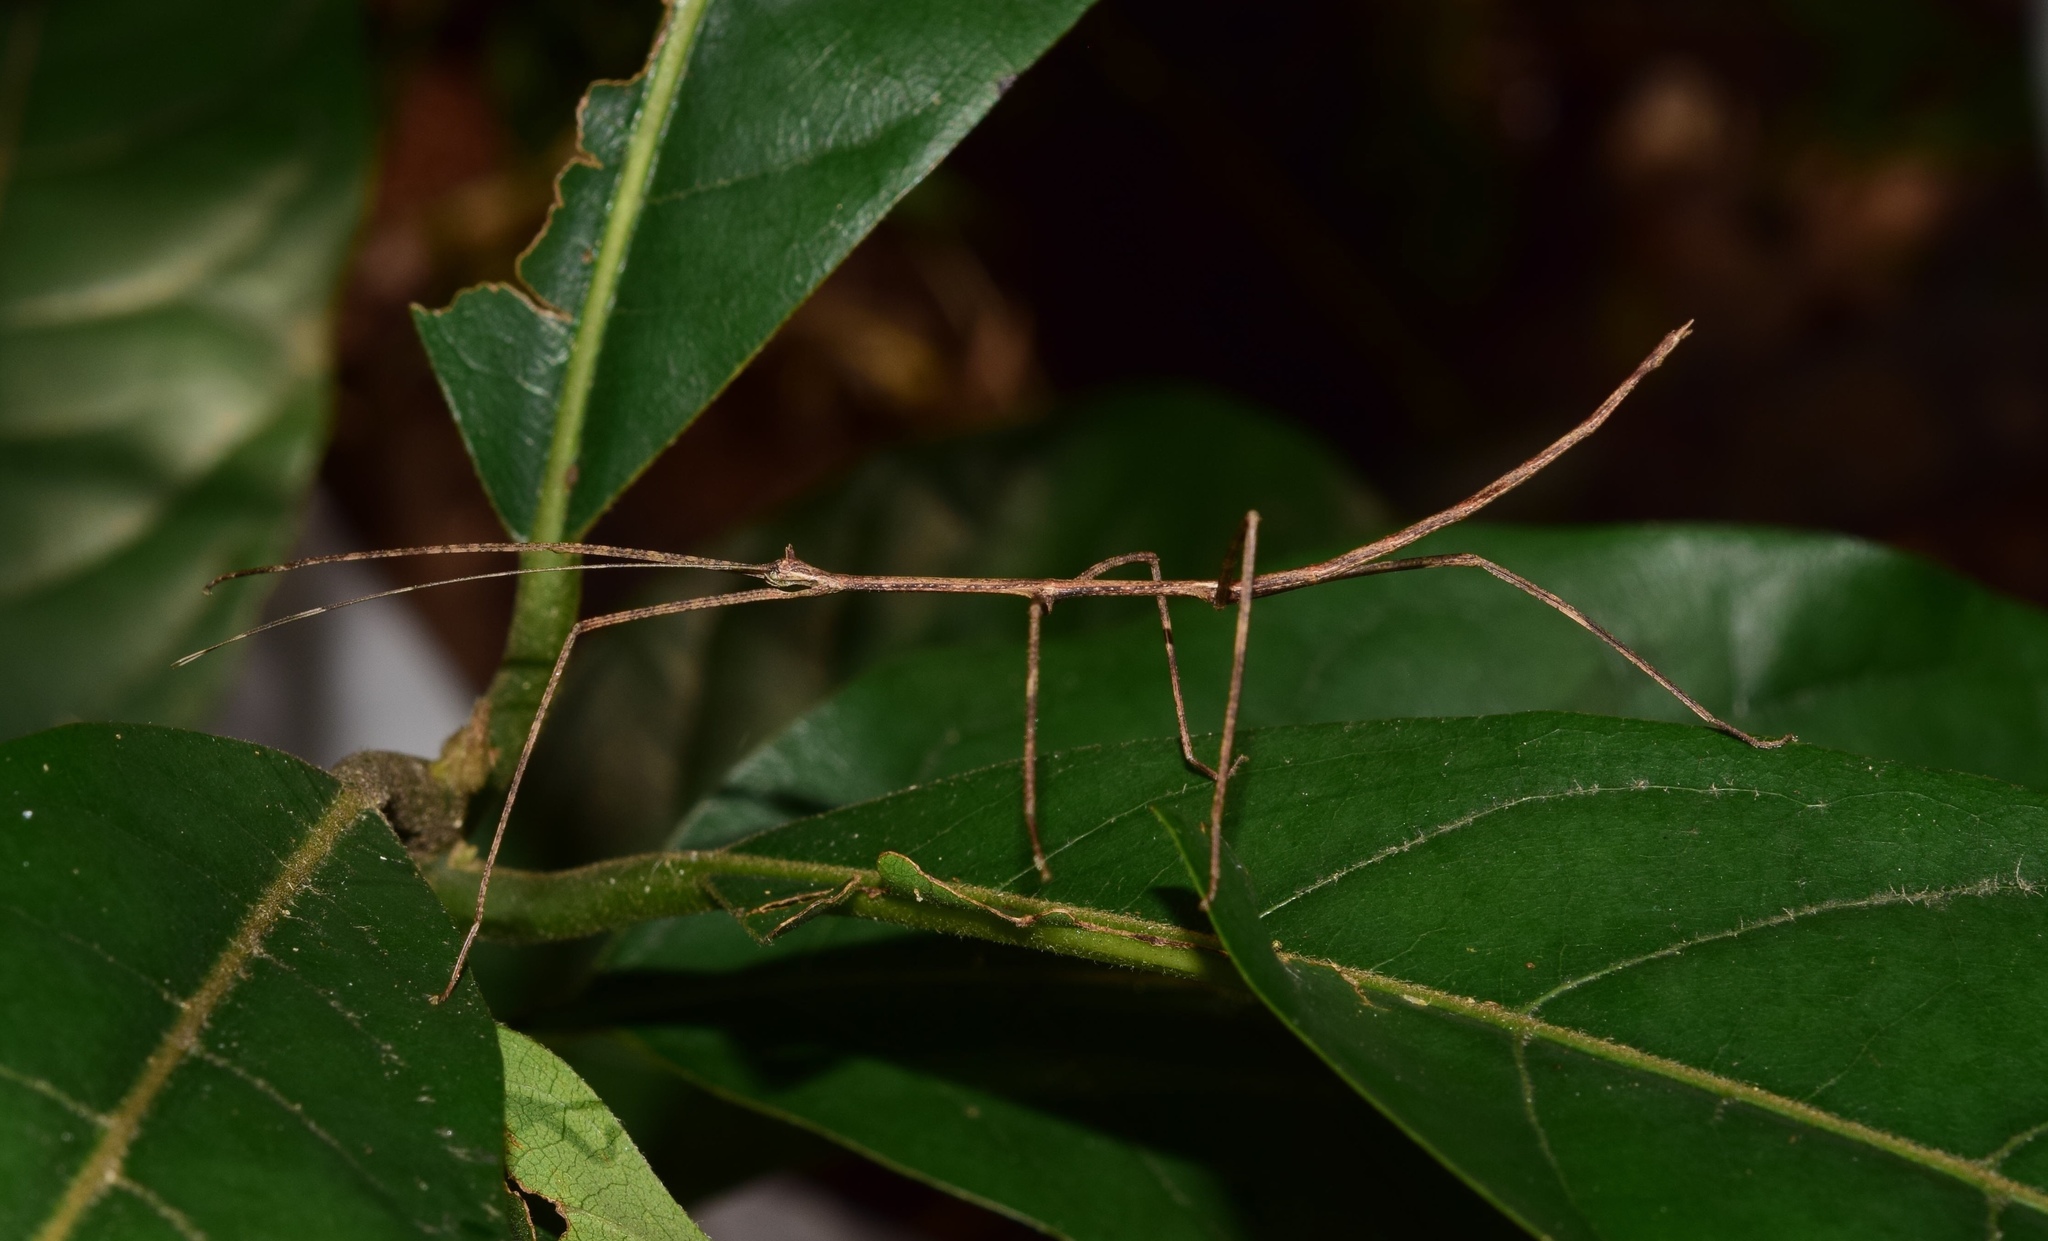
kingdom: Animalia
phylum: Arthropoda
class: Insecta
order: Phasmida
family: Diapheromeridae
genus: Bactricia
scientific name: Bactricia bituberculata
